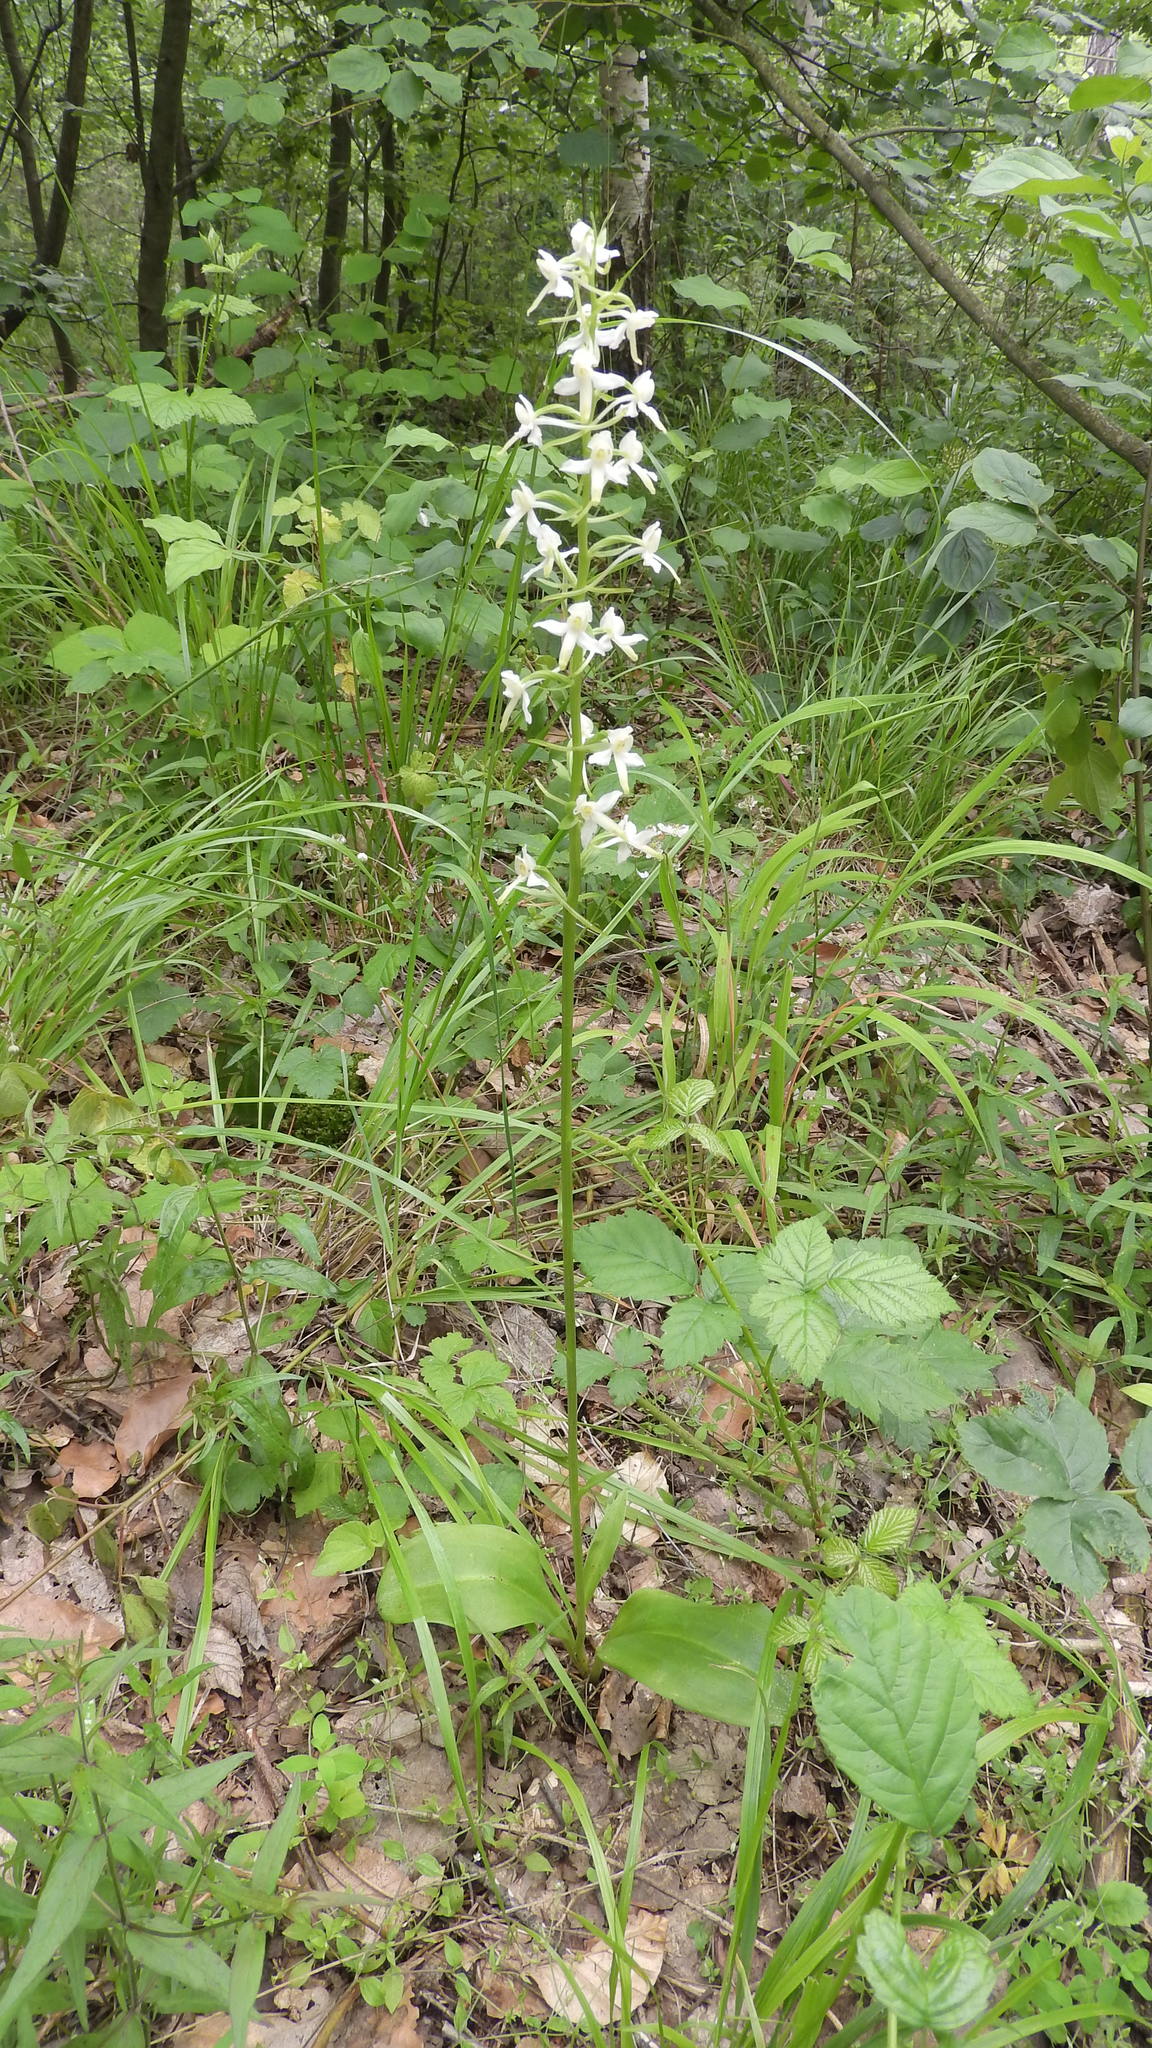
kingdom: Plantae
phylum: Tracheophyta
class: Liliopsida
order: Asparagales
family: Orchidaceae
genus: Platanthera
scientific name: Platanthera bifolia
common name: Lesser butterfly-orchid
